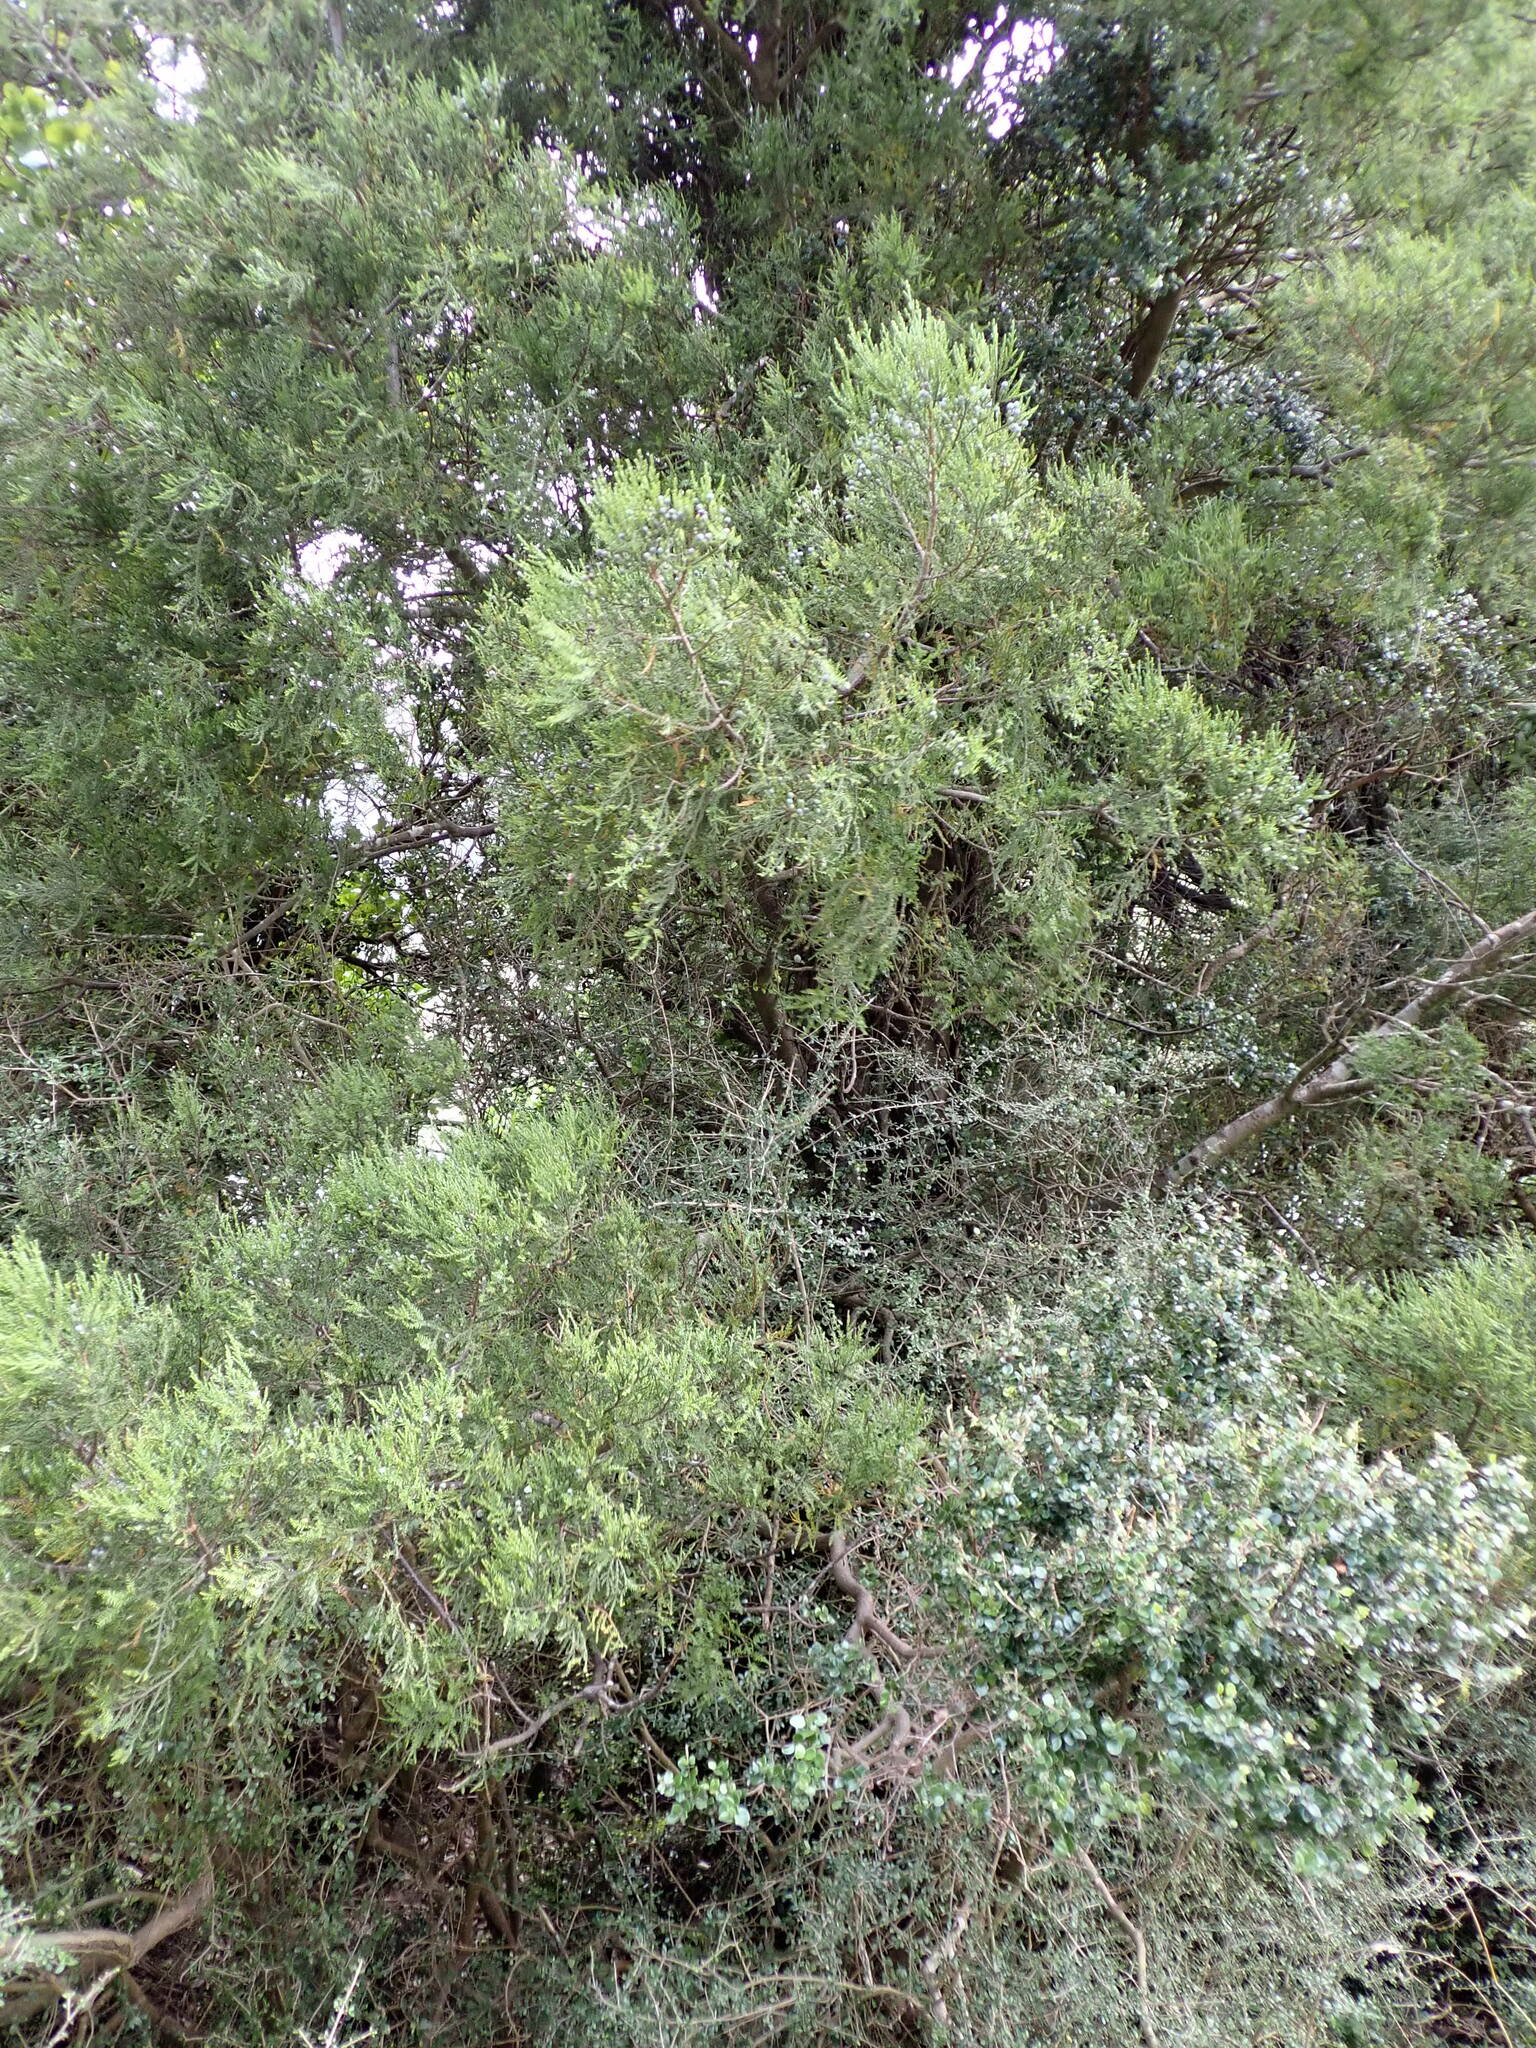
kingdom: Plantae
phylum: Tracheophyta
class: Pinopsida
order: Pinales
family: Podocarpaceae
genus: Dacrycarpus
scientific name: Dacrycarpus dacrydioides
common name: White pine
